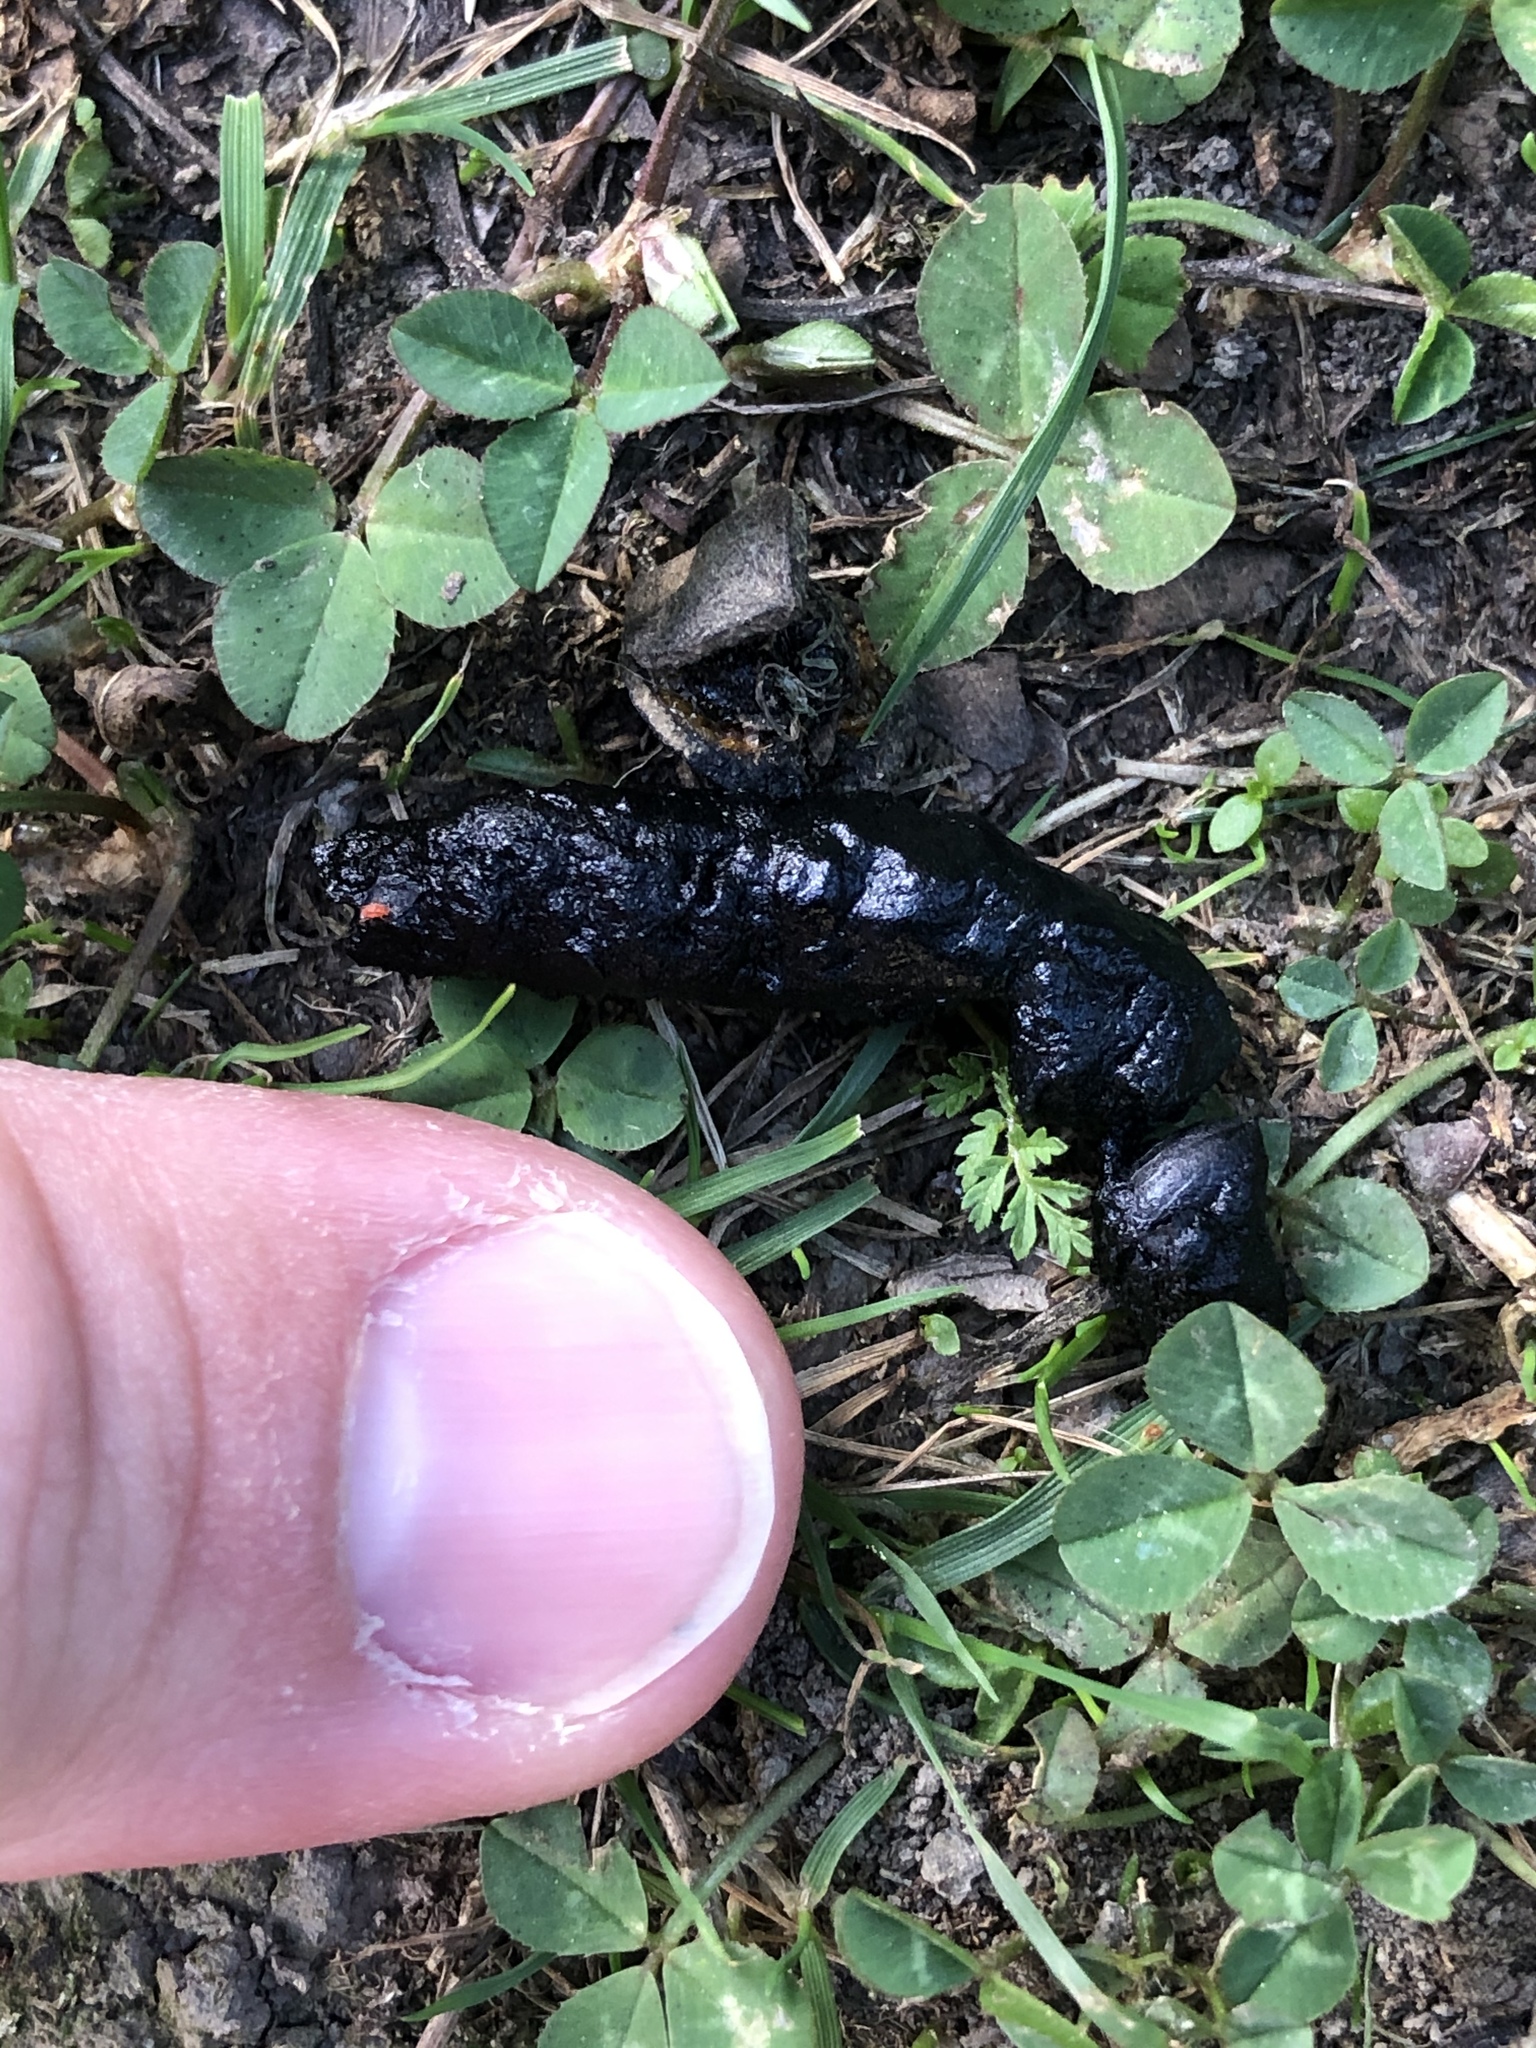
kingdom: Animalia
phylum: Chordata
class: Mammalia
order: Erinaceomorpha
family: Erinaceidae
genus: Erinaceus
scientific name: Erinaceus europaeus
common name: West european hedgehog
